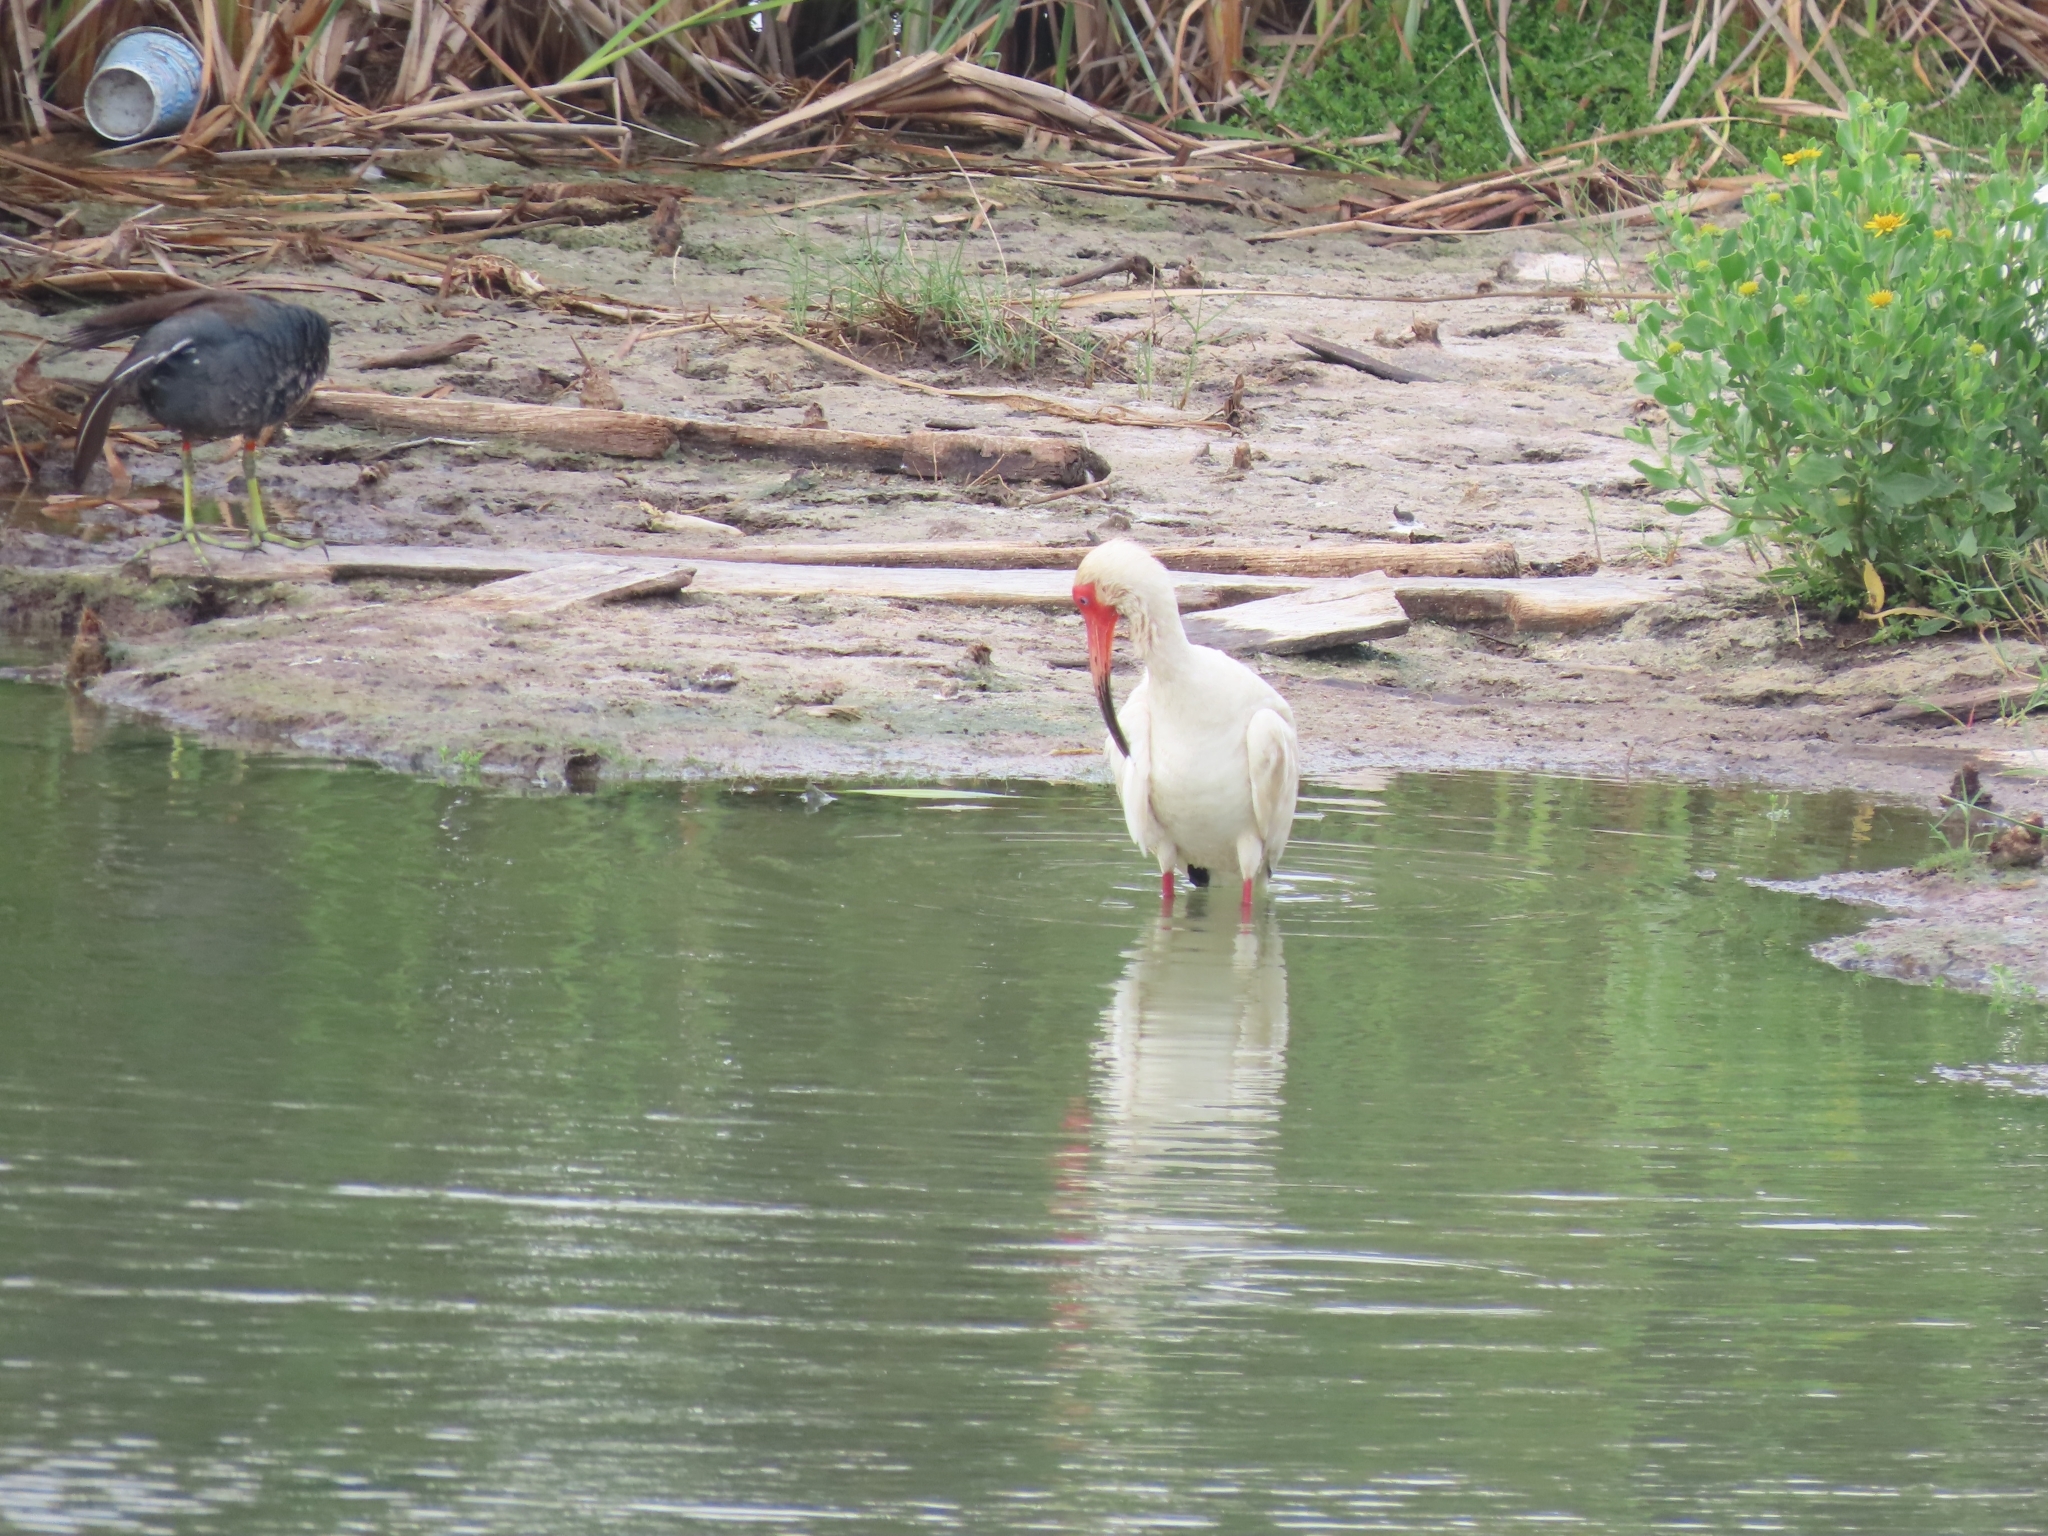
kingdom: Animalia
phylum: Chordata
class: Aves
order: Pelecaniformes
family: Threskiornithidae
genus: Eudocimus
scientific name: Eudocimus albus
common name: White ibis
